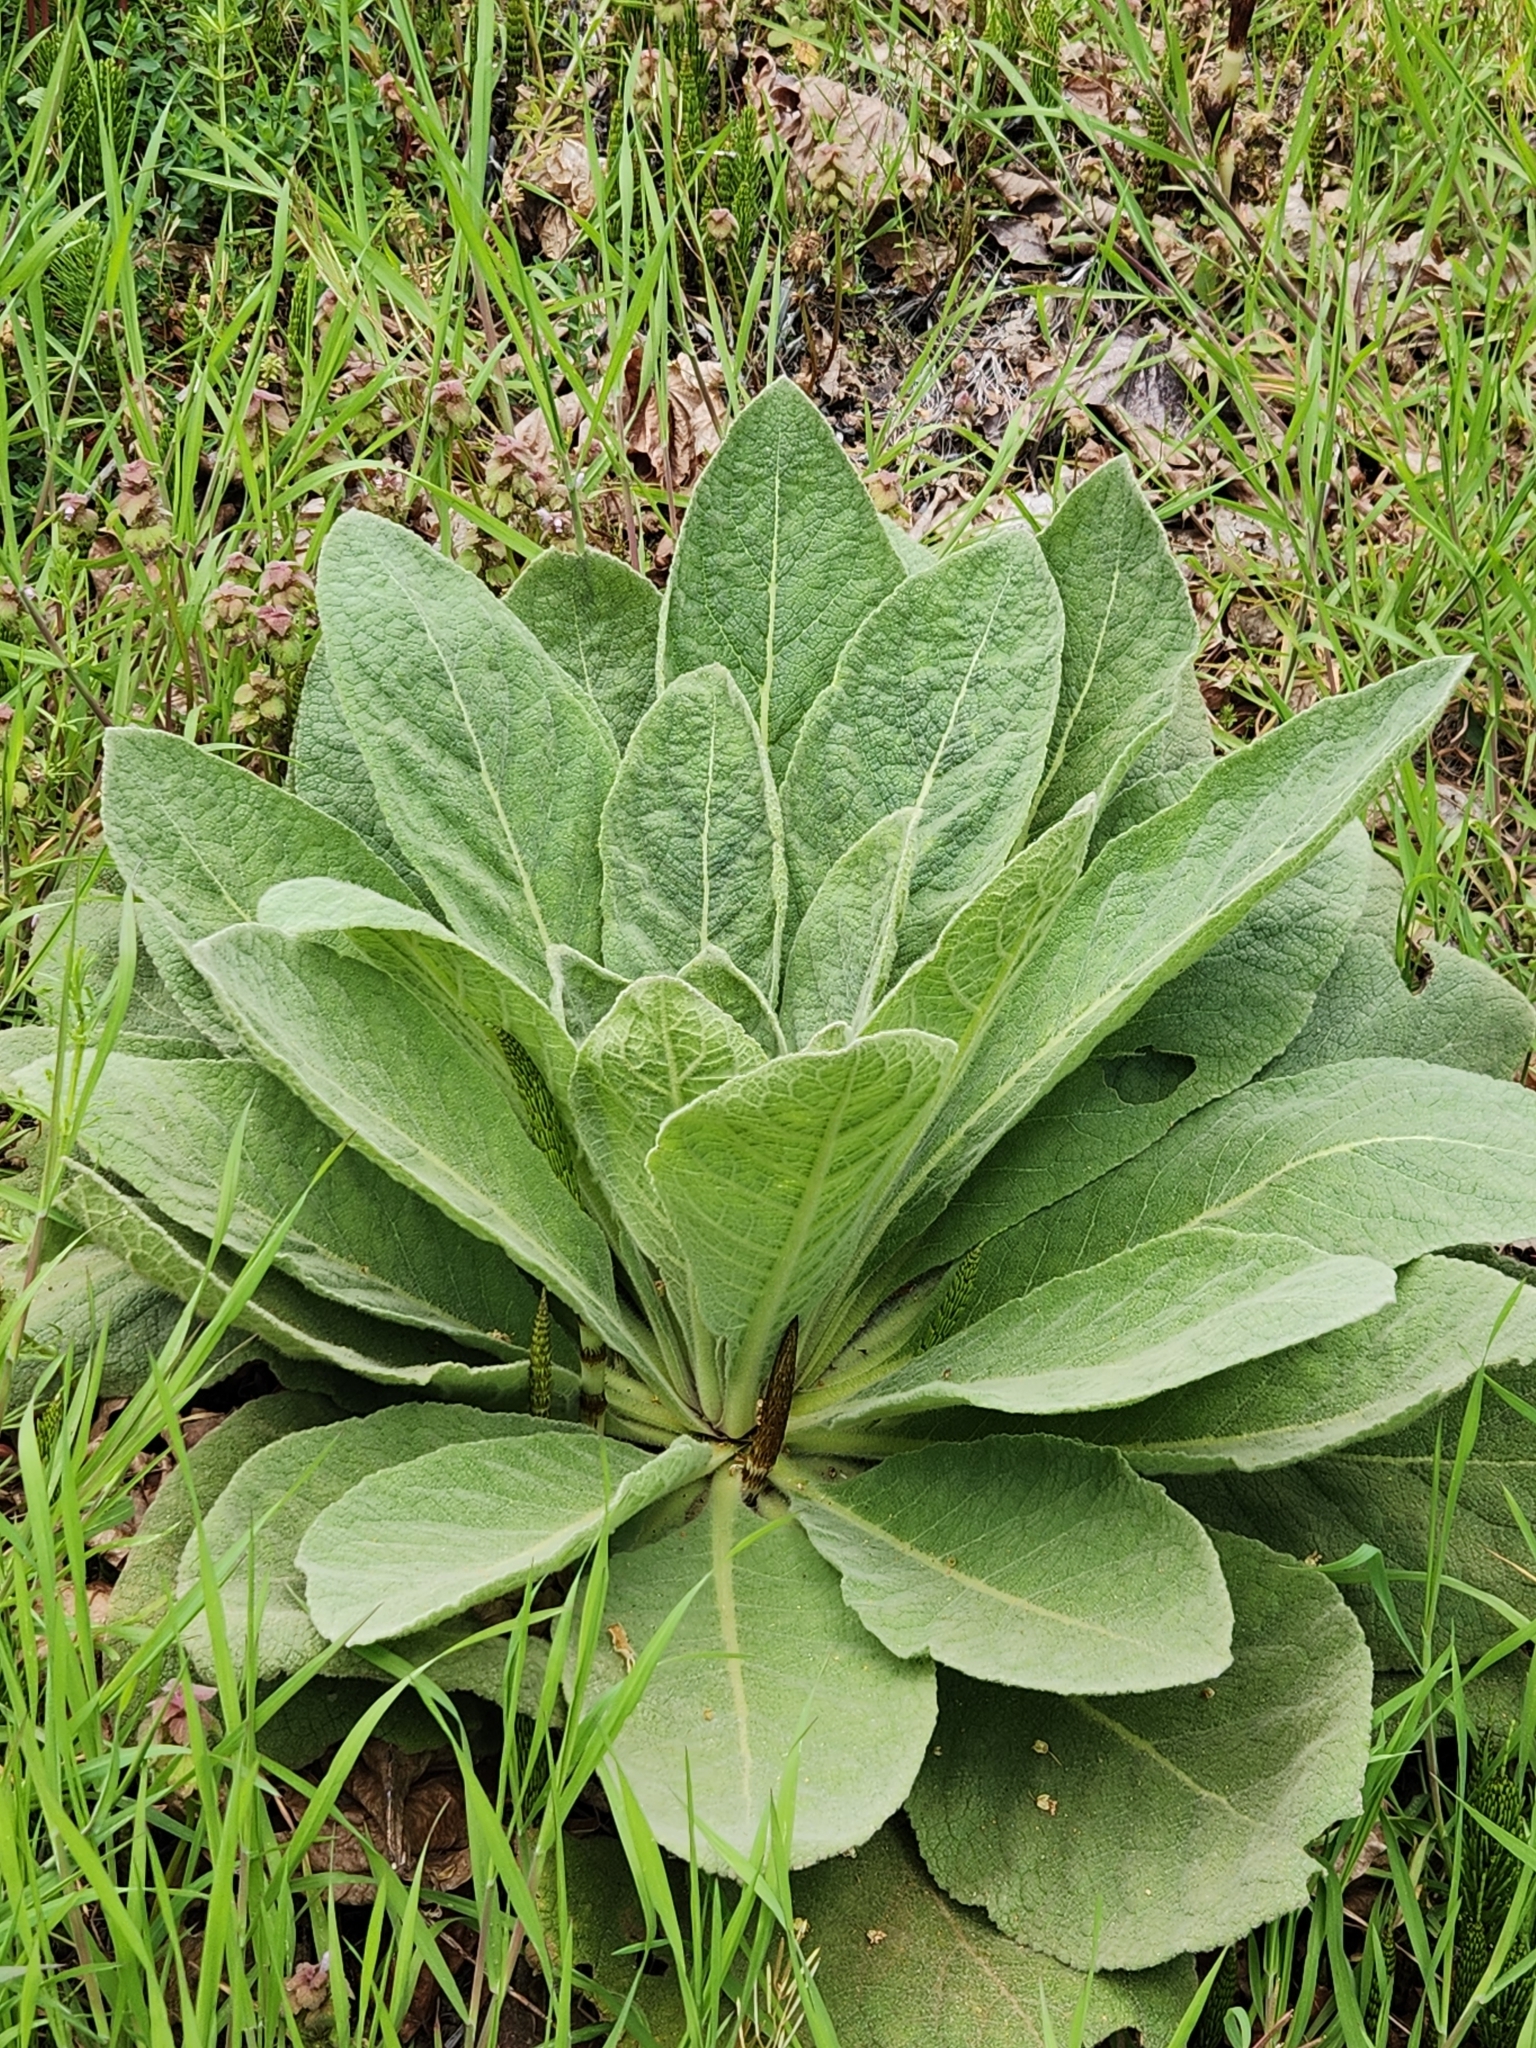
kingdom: Plantae
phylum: Tracheophyta
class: Magnoliopsida
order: Lamiales
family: Scrophulariaceae
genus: Verbascum
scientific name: Verbascum thapsus
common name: Common mullein
